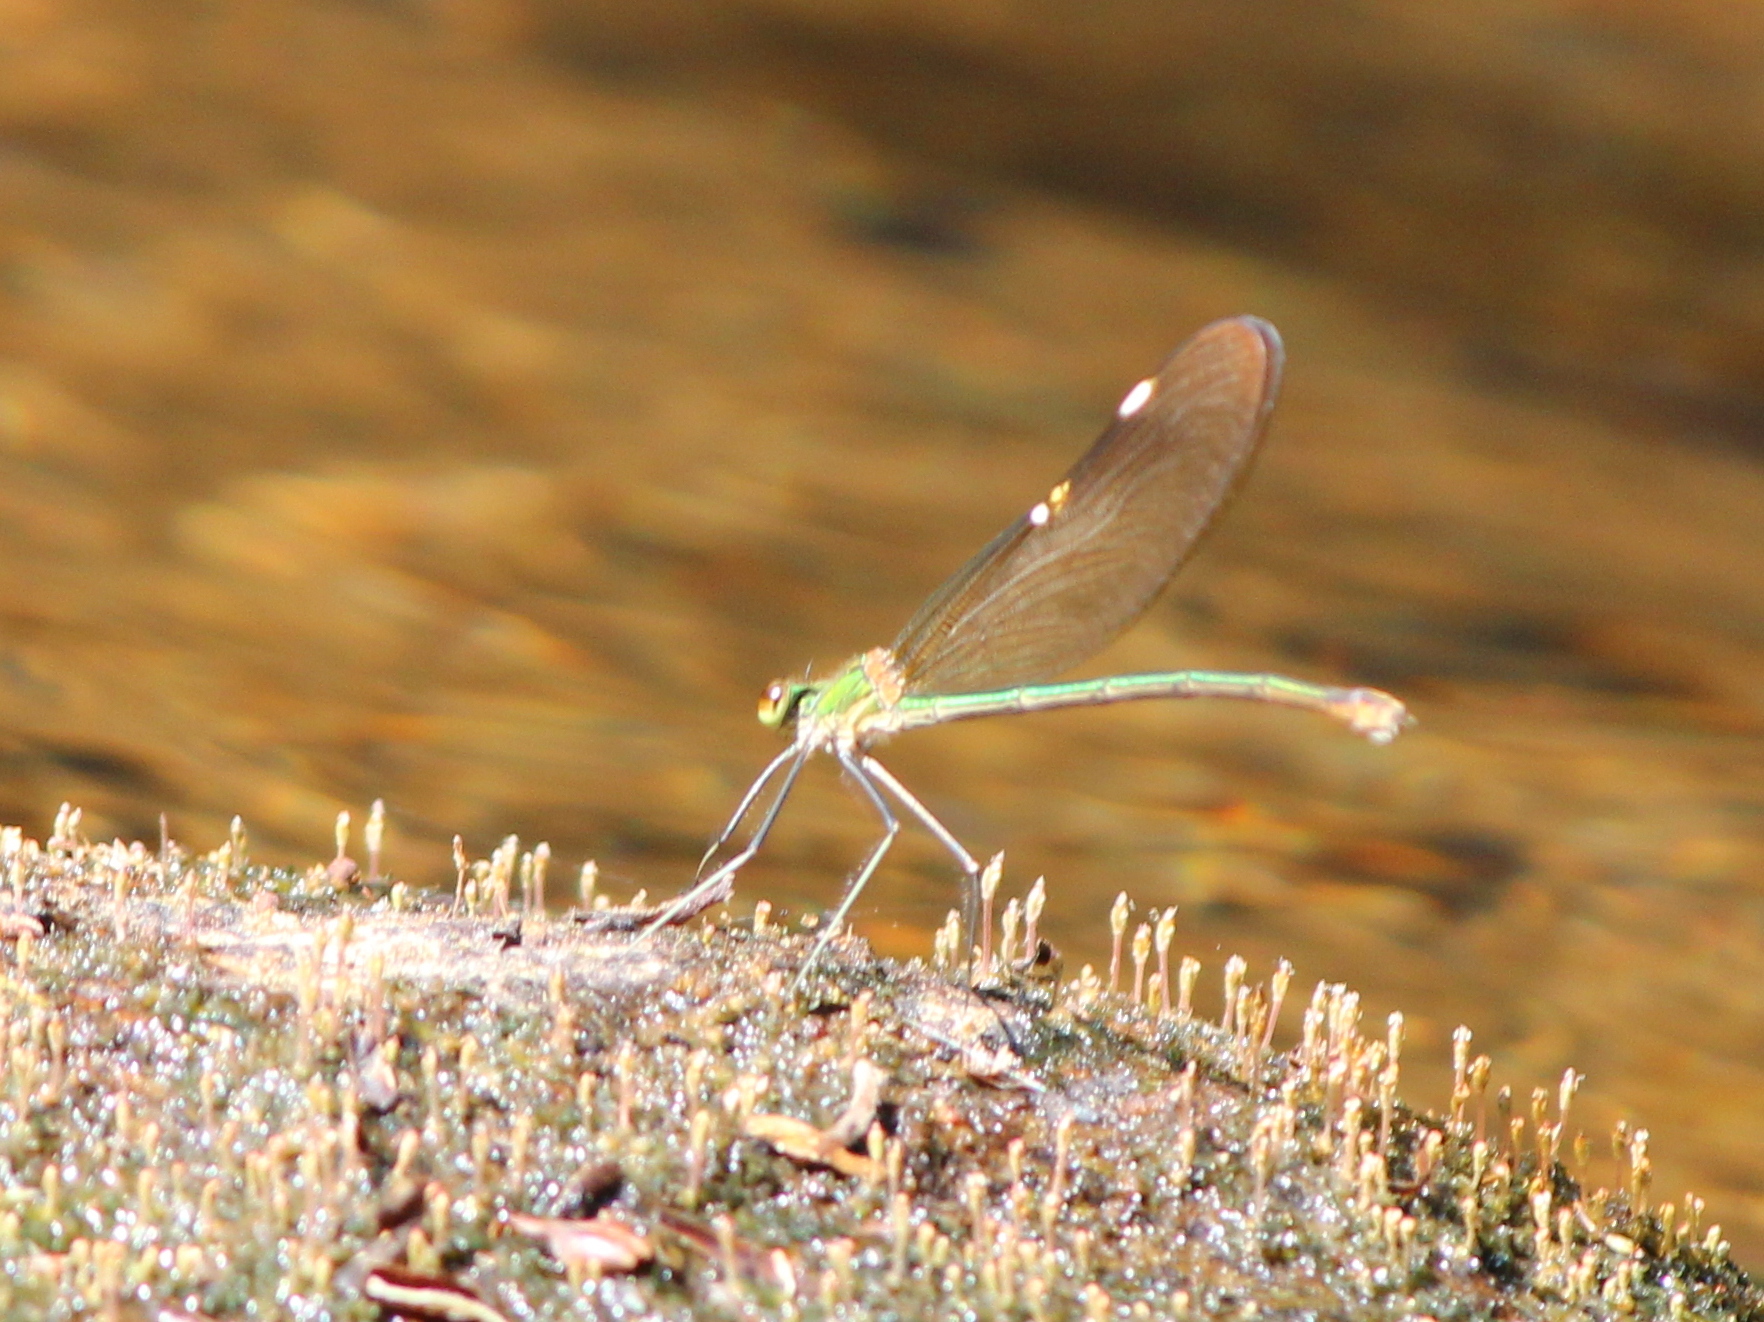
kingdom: Animalia
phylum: Arthropoda
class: Insecta
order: Odonata
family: Calopterygidae
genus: Neurobasis
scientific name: Neurobasis chinensis
